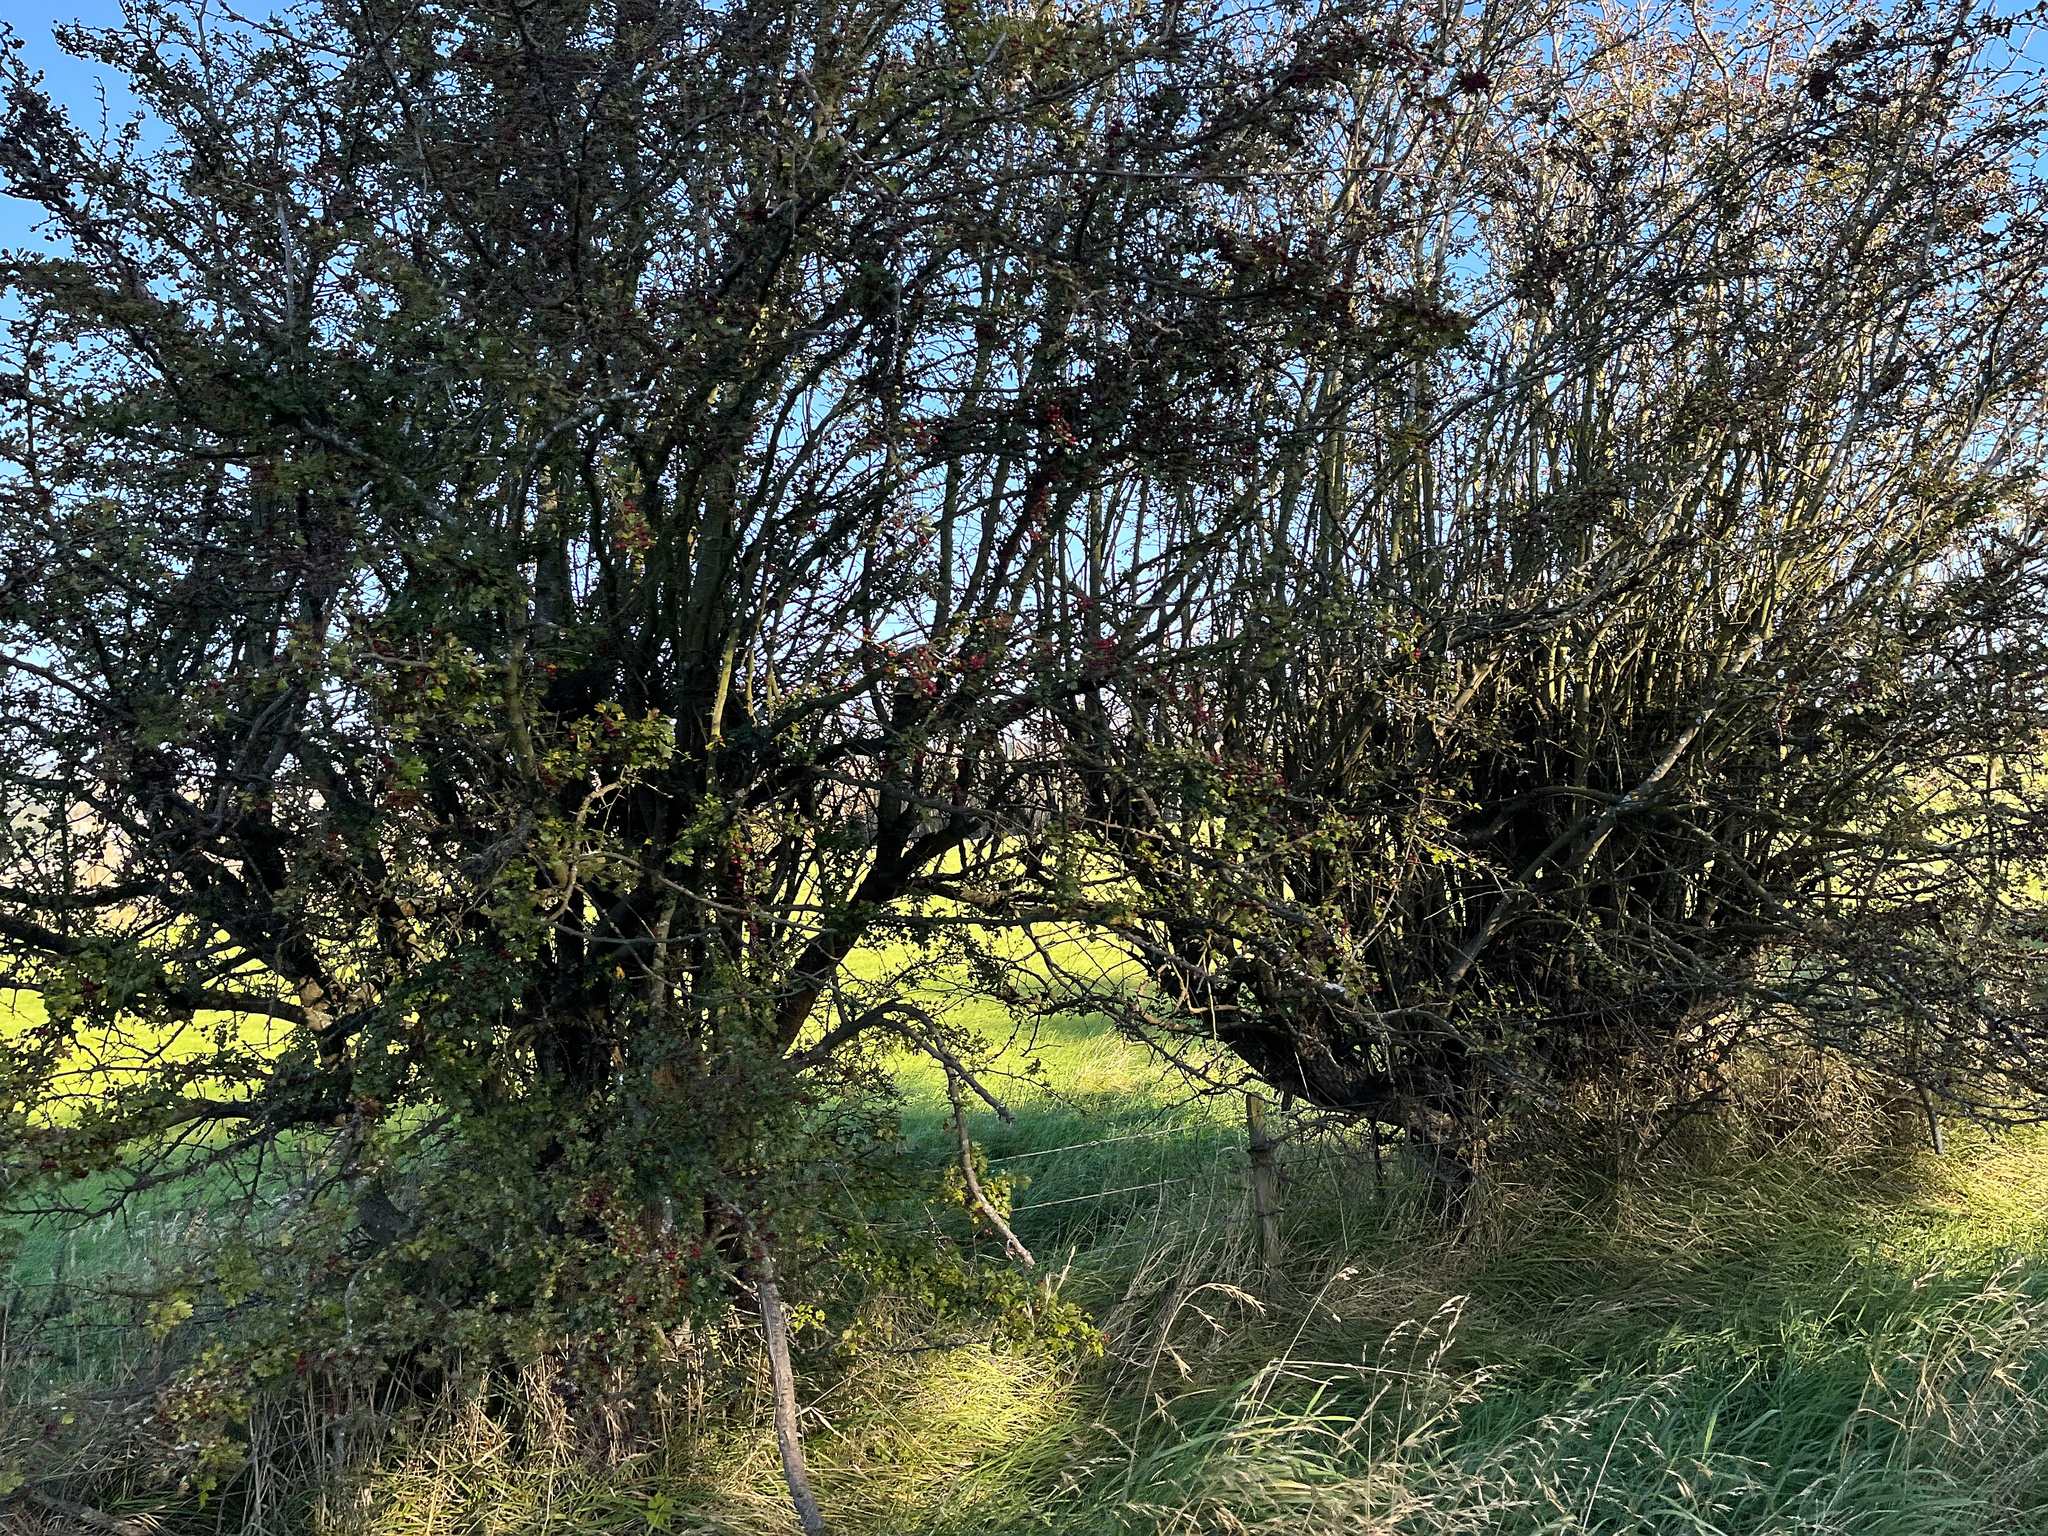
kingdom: Plantae
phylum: Tracheophyta
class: Magnoliopsida
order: Rosales
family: Rosaceae
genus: Crataegus
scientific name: Crataegus monogyna
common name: Hawthorn
